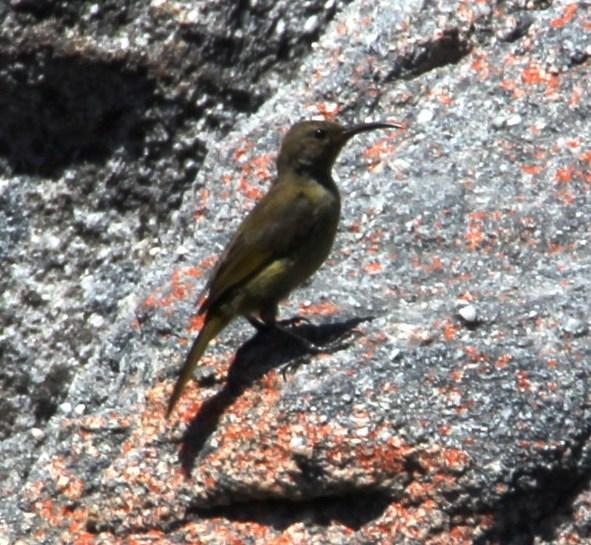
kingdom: Animalia
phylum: Chordata
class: Aves
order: Passeriformes
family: Nectariniidae
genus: Anthobaphes
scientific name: Anthobaphes violacea
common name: Orange-breasted sunbird
